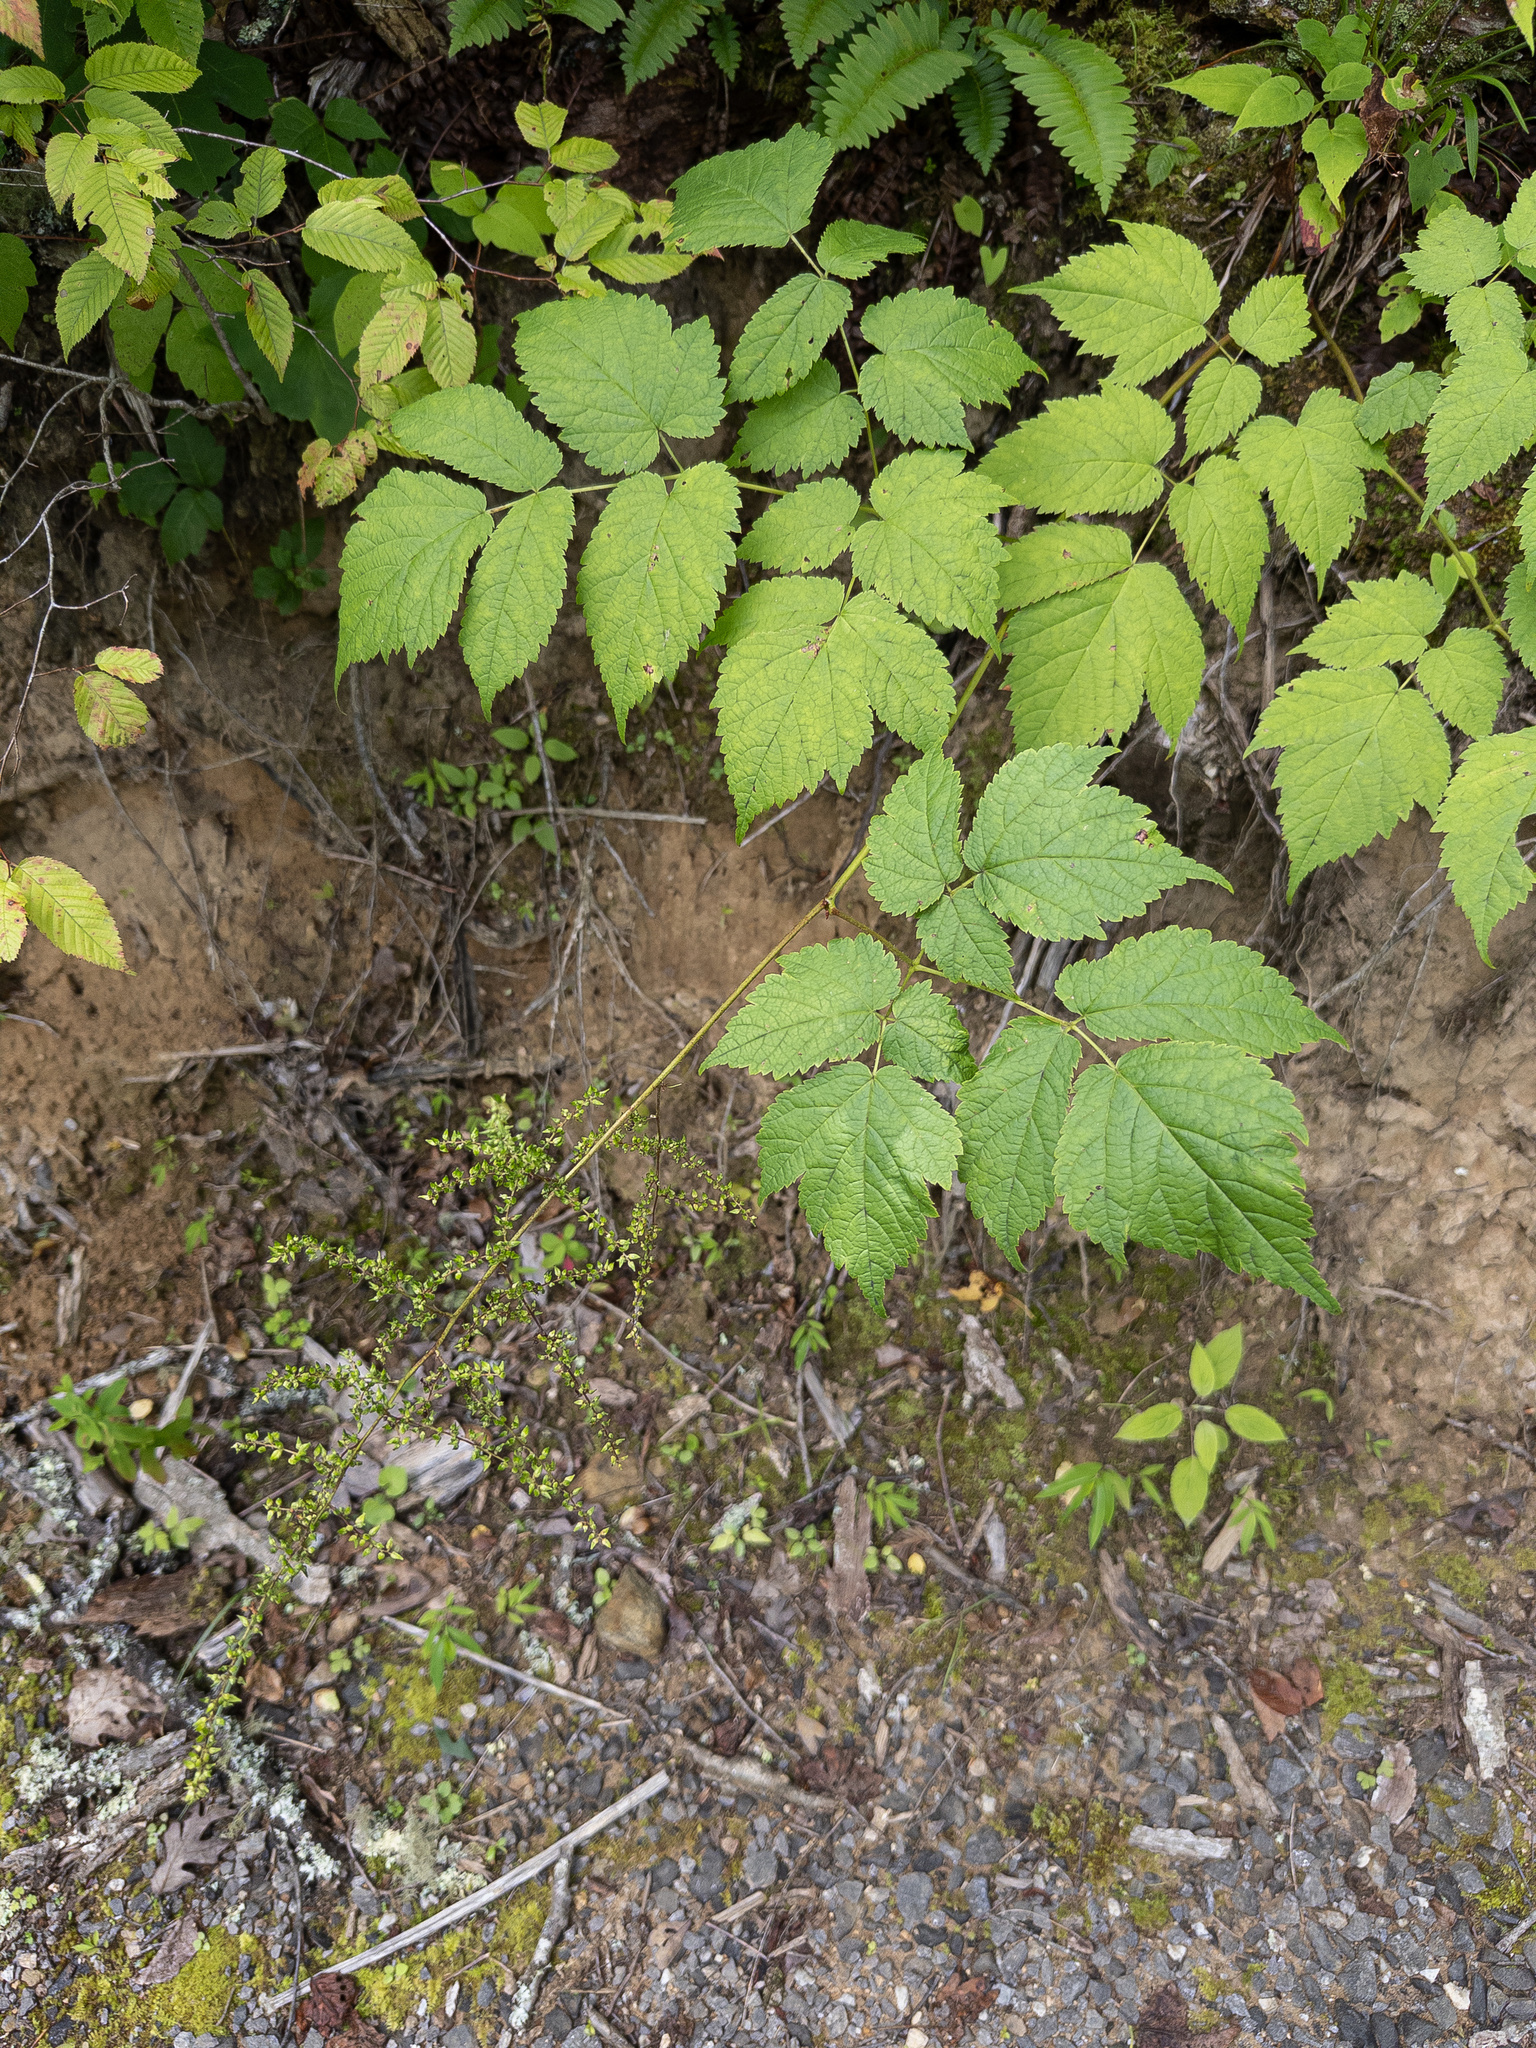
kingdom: Plantae
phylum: Tracheophyta
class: Magnoliopsida
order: Saxifragales
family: Saxifragaceae
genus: Astilbe
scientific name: Astilbe biternata
